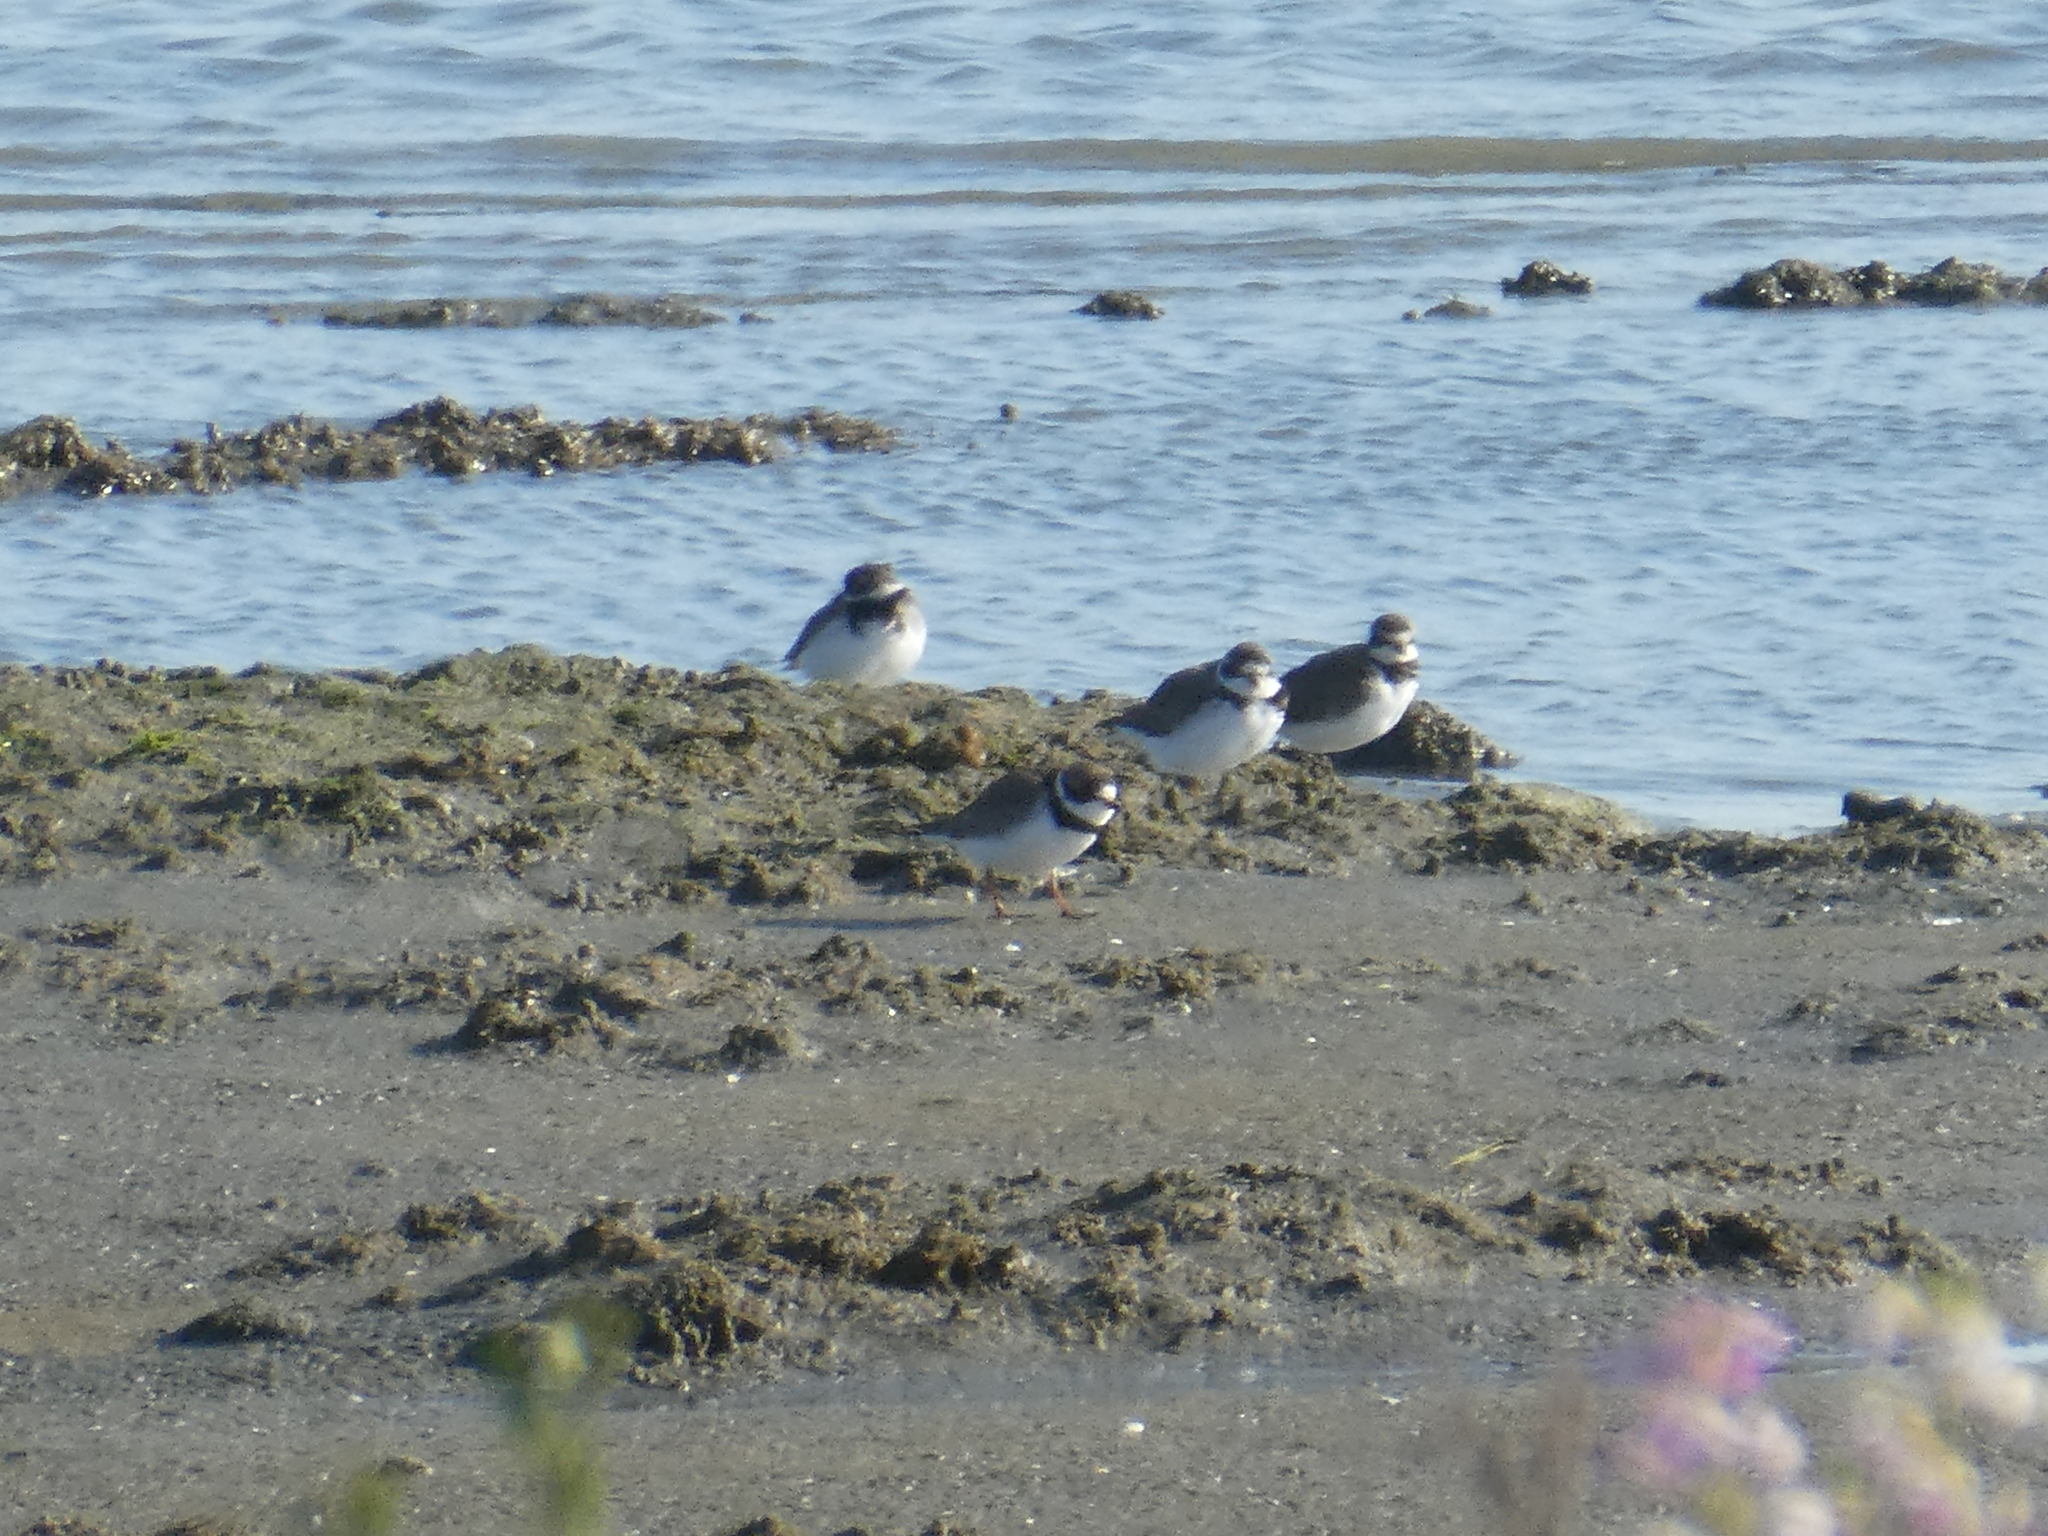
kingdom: Animalia
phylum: Chordata
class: Aves
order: Charadriiformes
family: Charadriidae
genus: Charadrius
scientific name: Charadrius semipalmatus
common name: Semipalmated plover
